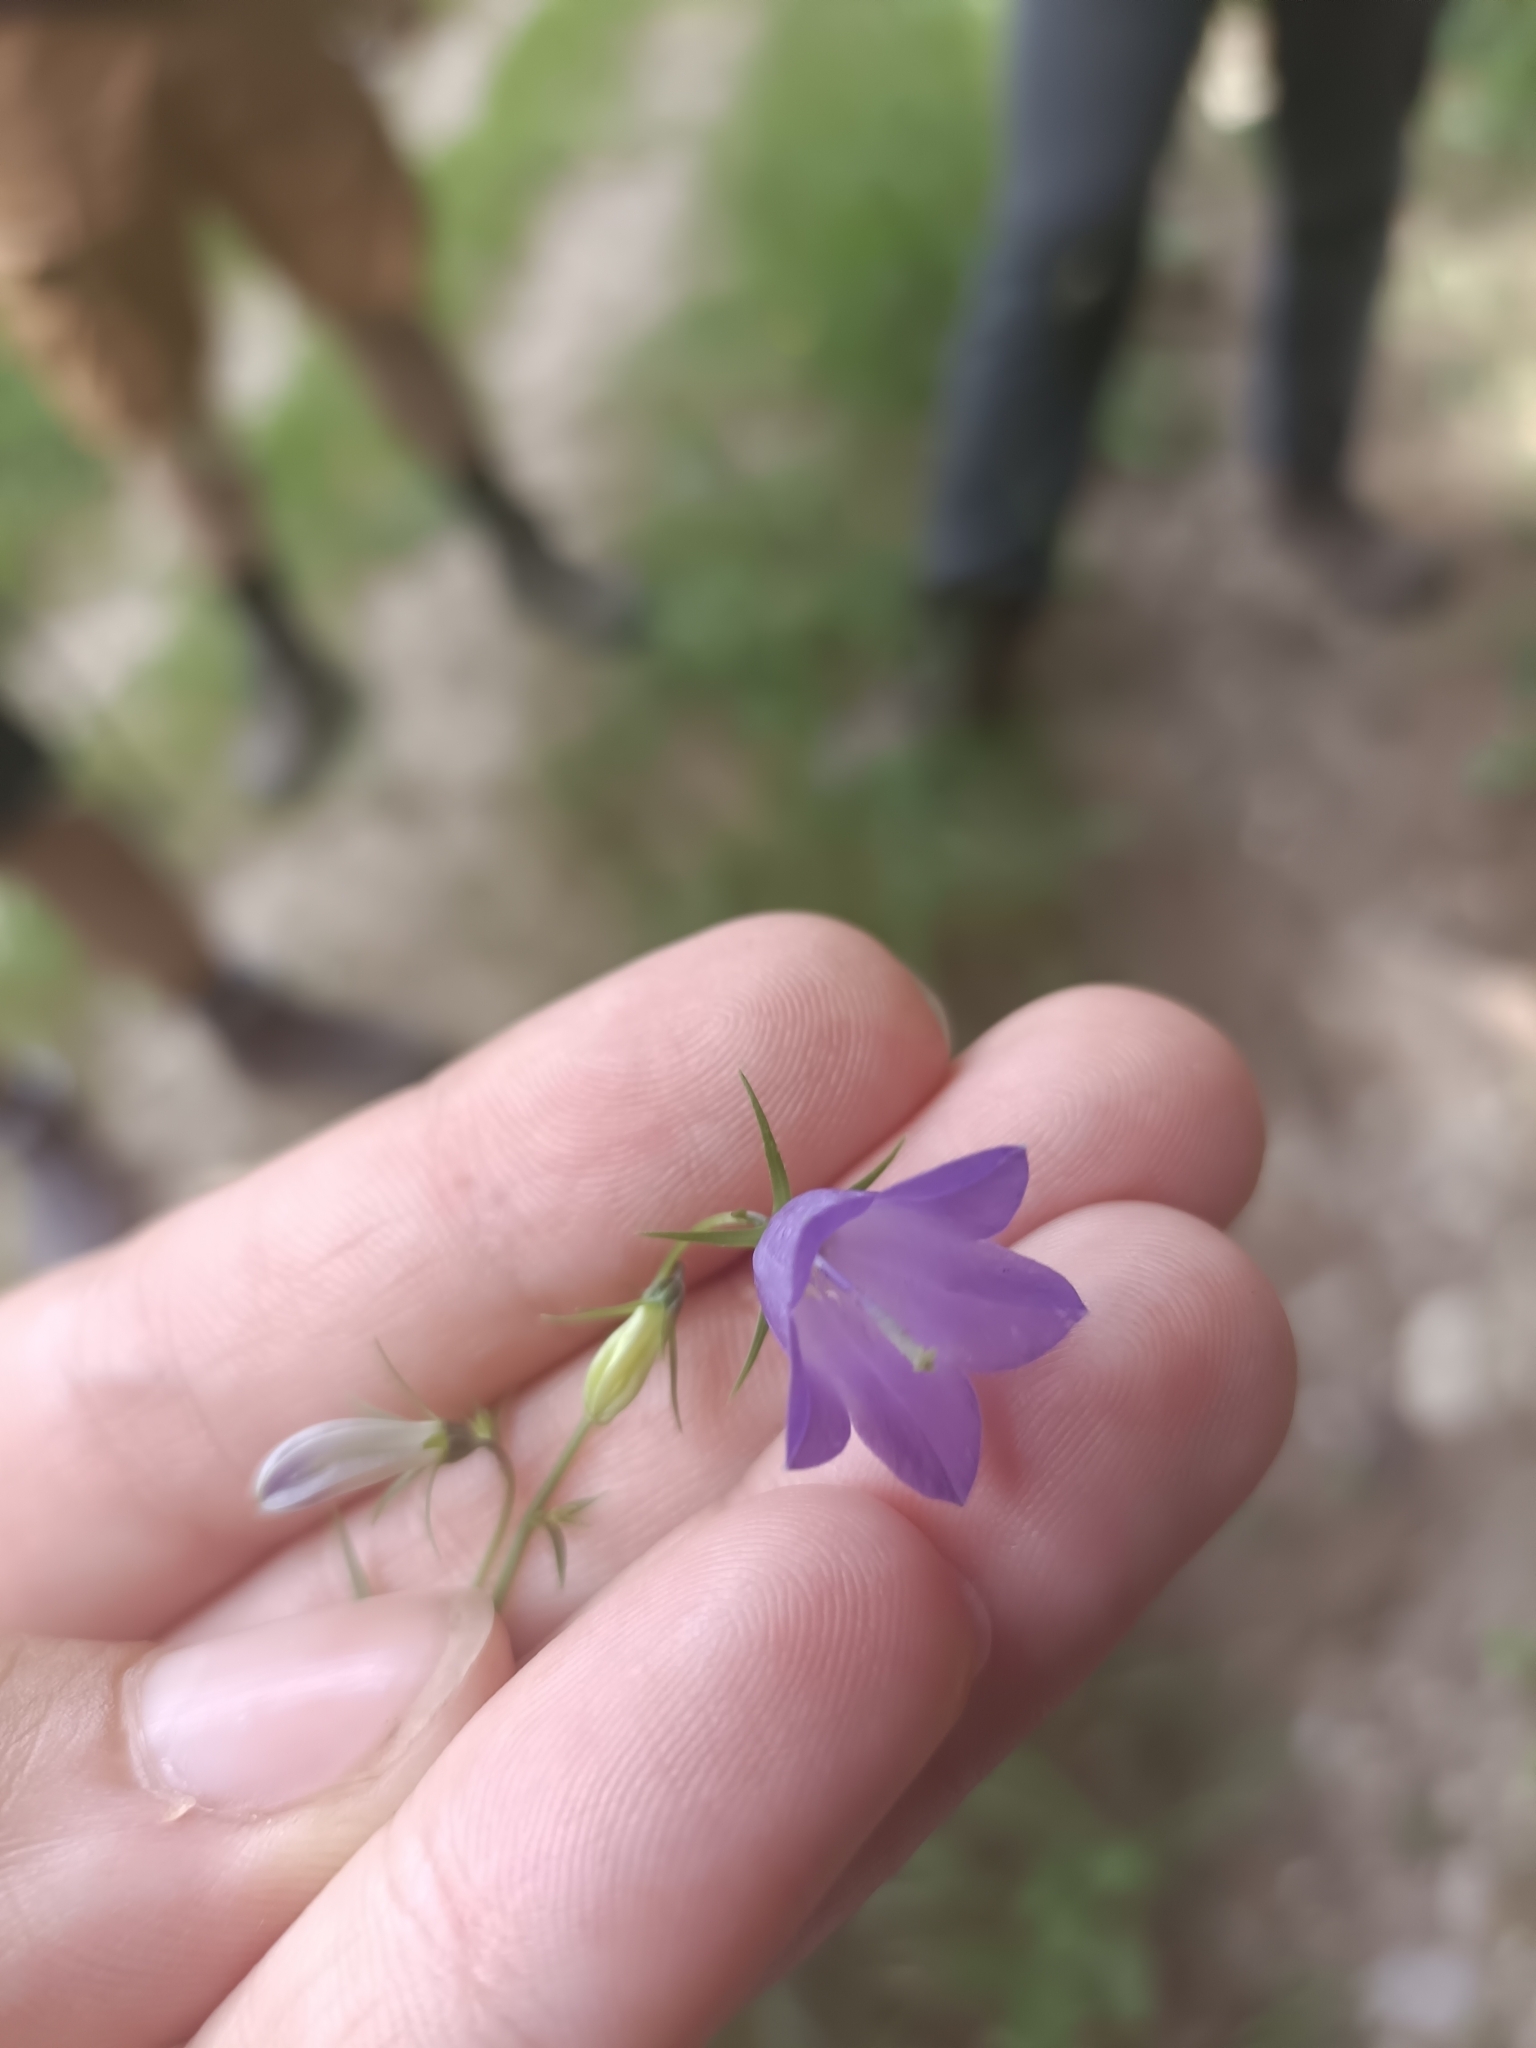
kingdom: Plantae
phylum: Tracheophyta
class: Magnoliopsida
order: Asterales
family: Campanulaceae
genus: Campanula
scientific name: Campanula baumgartenii
